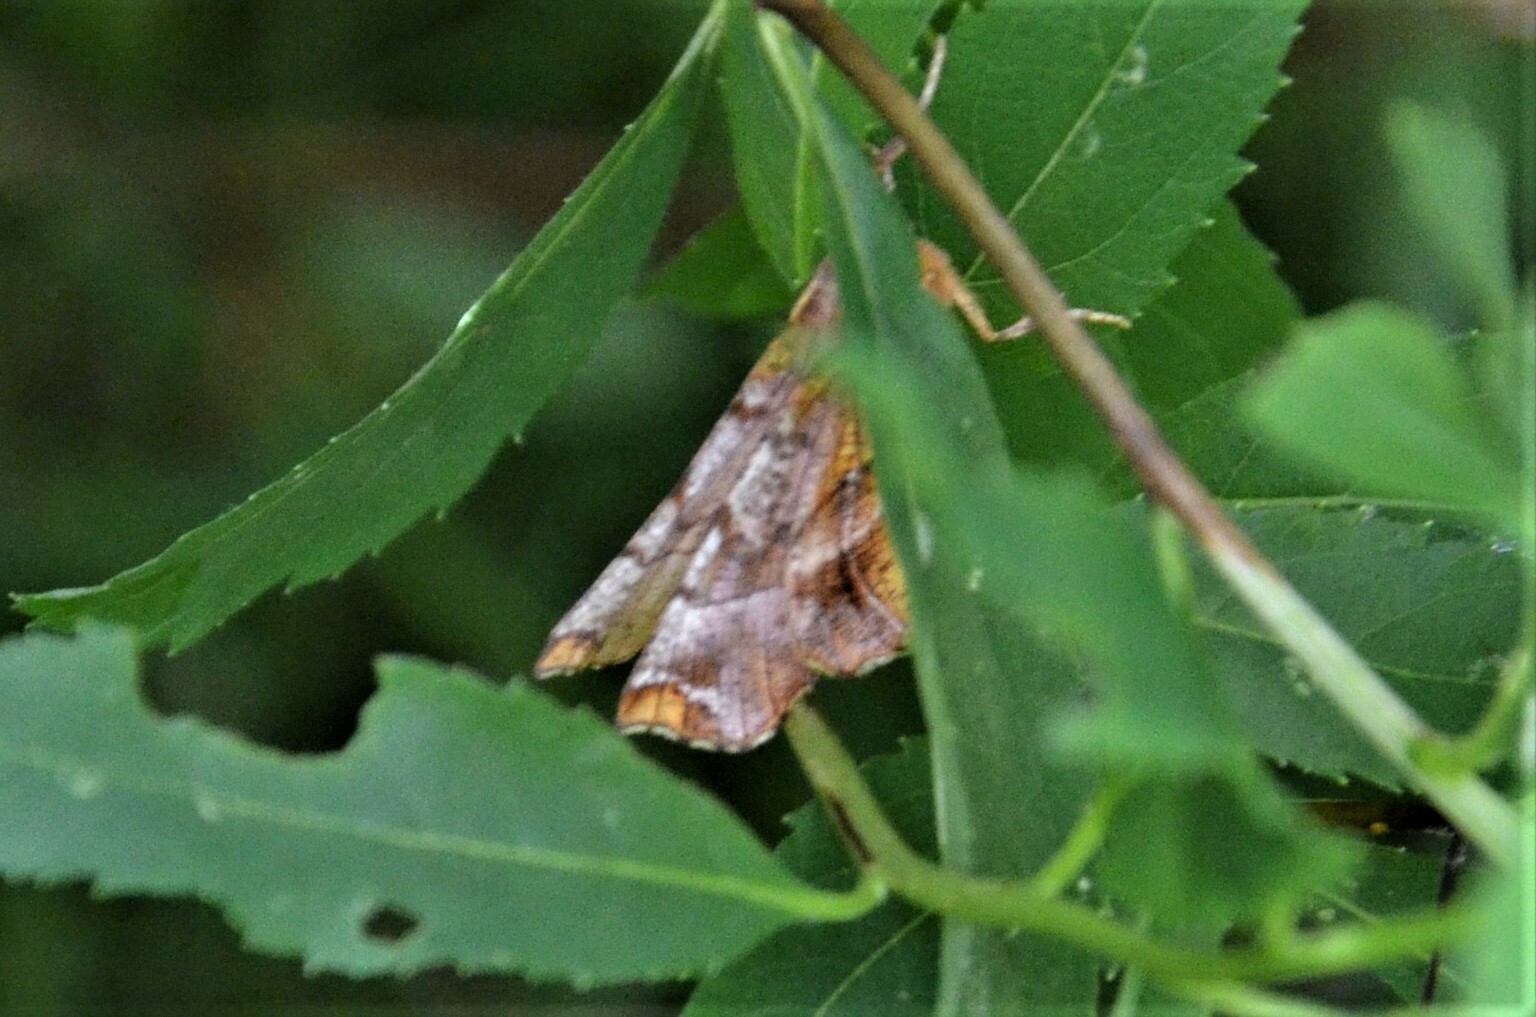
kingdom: Animalia
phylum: Arthropoda
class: Insecta
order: Lepidoptera
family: Geometridae
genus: Selenia
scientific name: Selenia dentaria
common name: Early thorn
